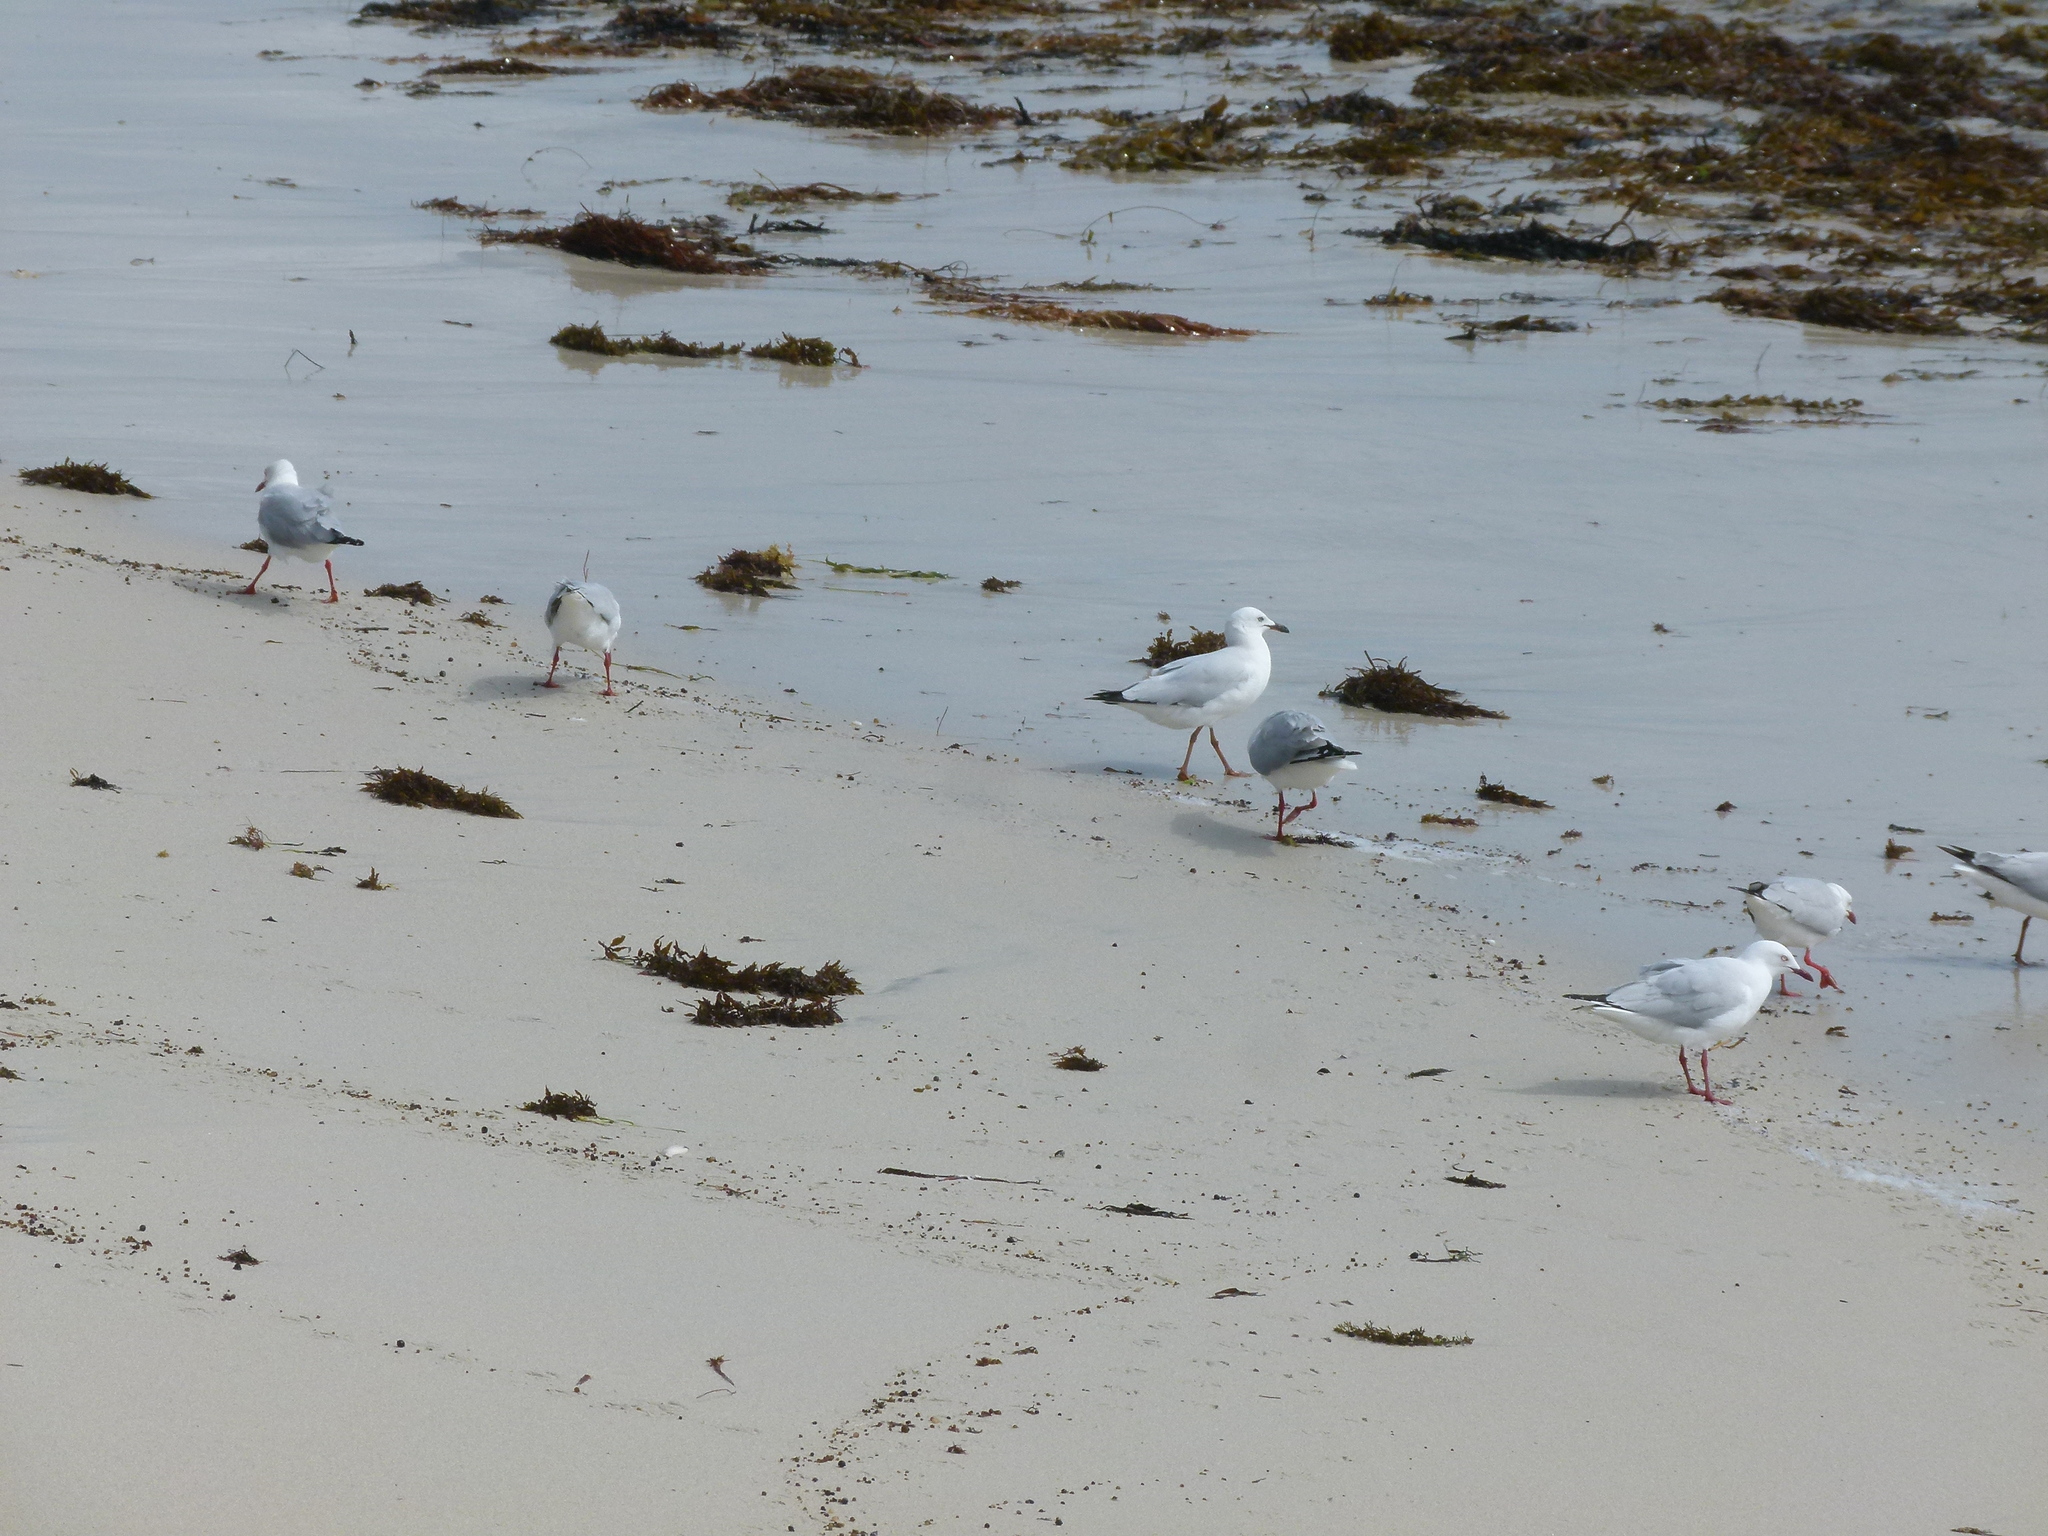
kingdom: Animalia
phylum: Chordata
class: Aves
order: Charadriiformes
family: Laridae
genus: Chroicocephalus
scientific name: Chroicocephalus novaehollandiae
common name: Silver gull
